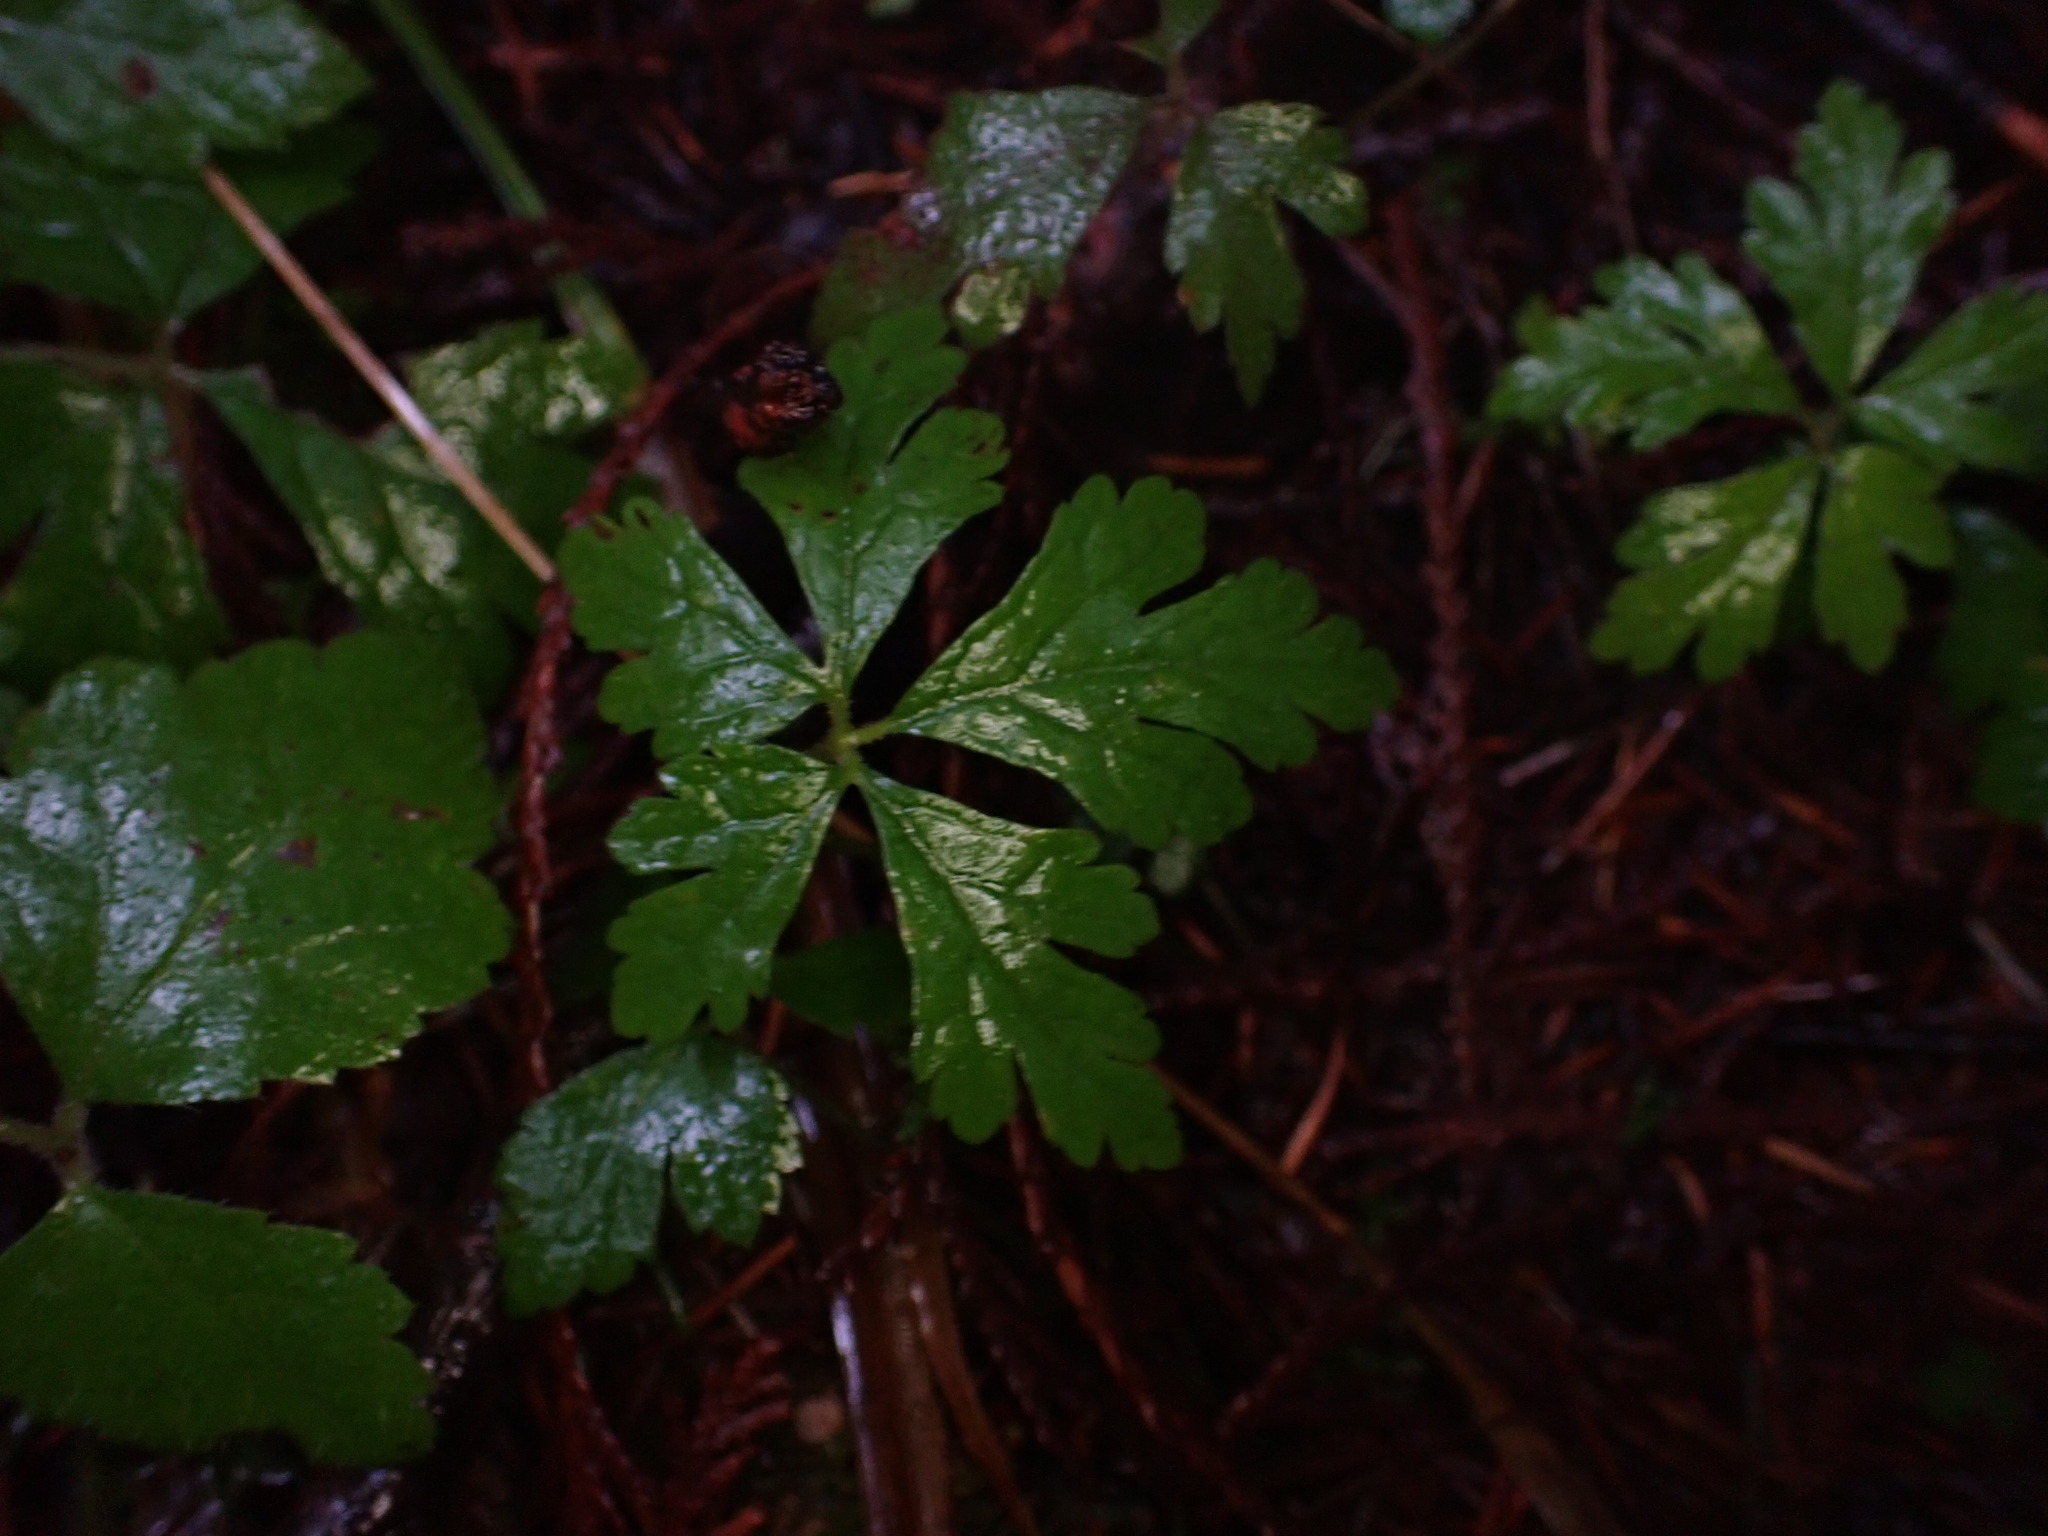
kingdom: Plantae
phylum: Tracheophyta
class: Magnoliopsida
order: Saxifragales
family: Saxifragaceae
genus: Tiarella
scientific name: Tiarella trifoliata
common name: Sugar-scoop
